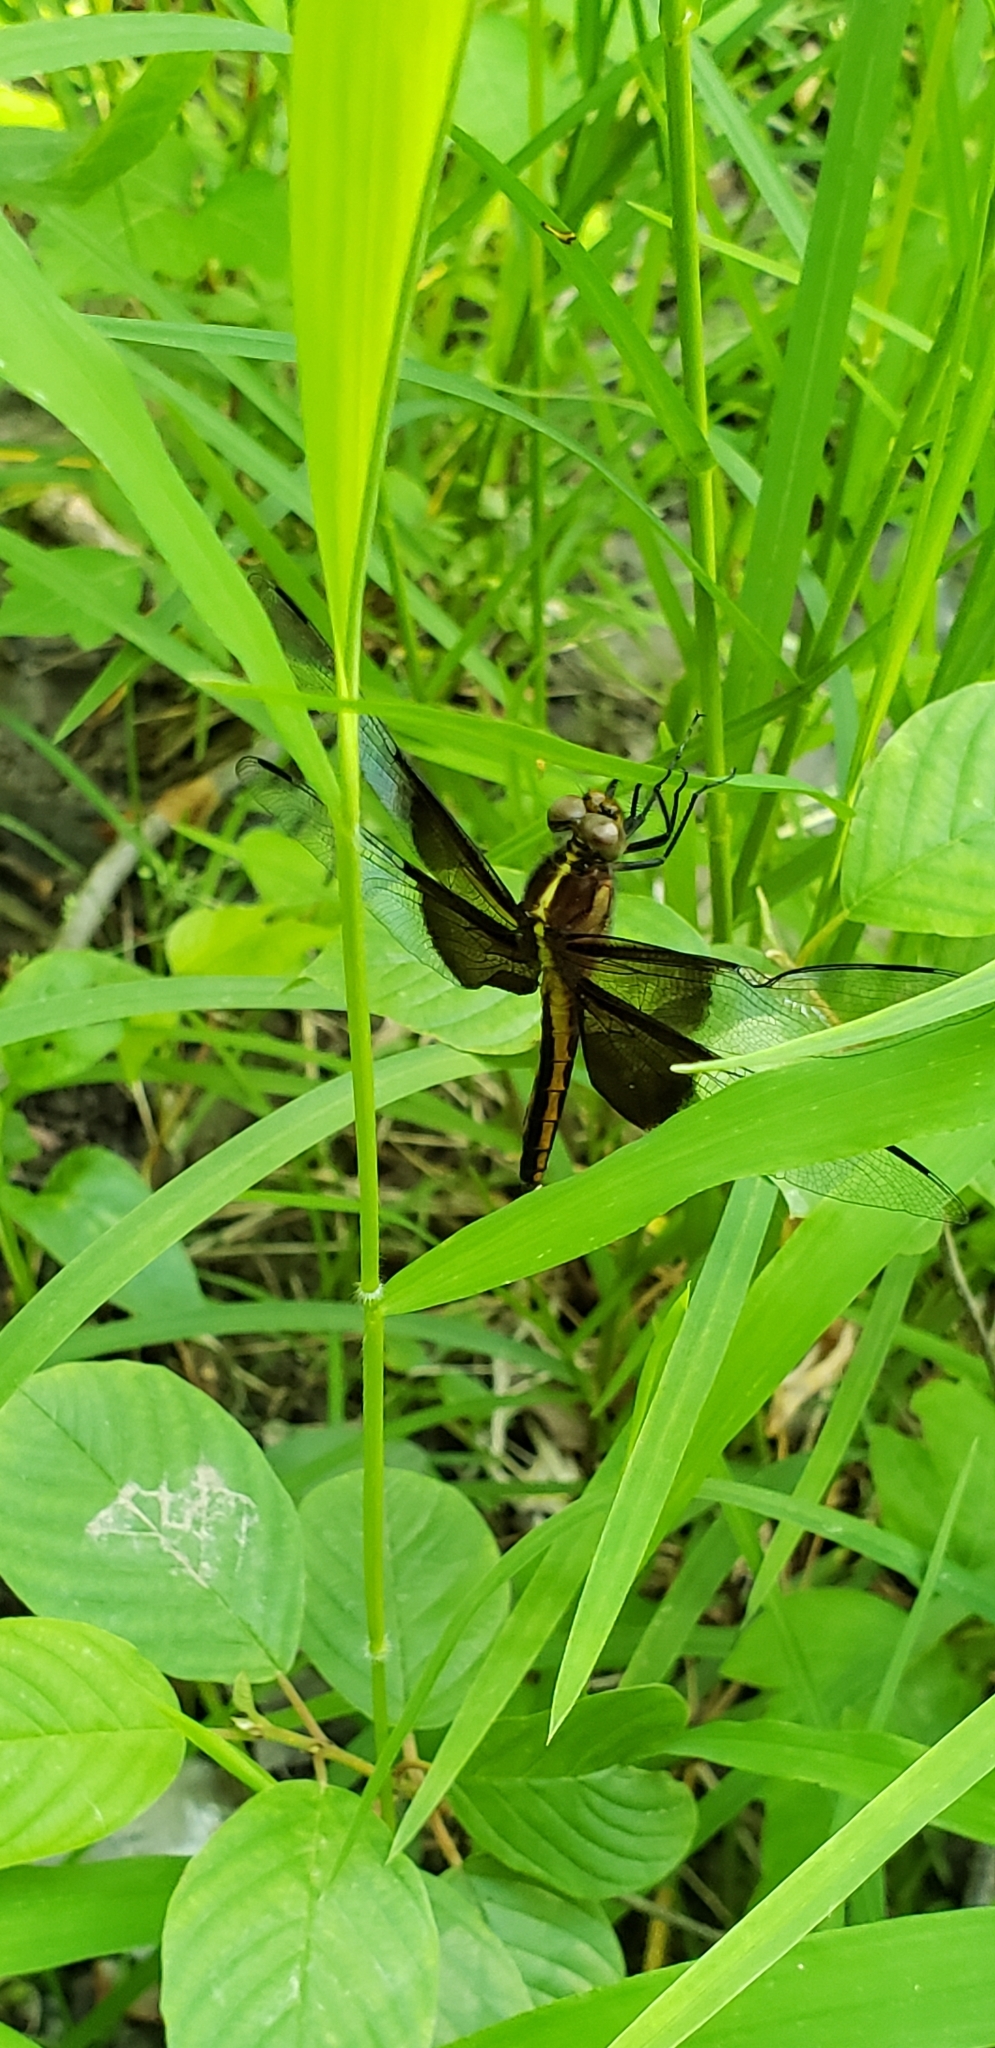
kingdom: Animalia
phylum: Arthropoda
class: Insecta
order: Odonata
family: Libellulidae
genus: Libellula
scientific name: Libellula luctuosa
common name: Widow skimmer
